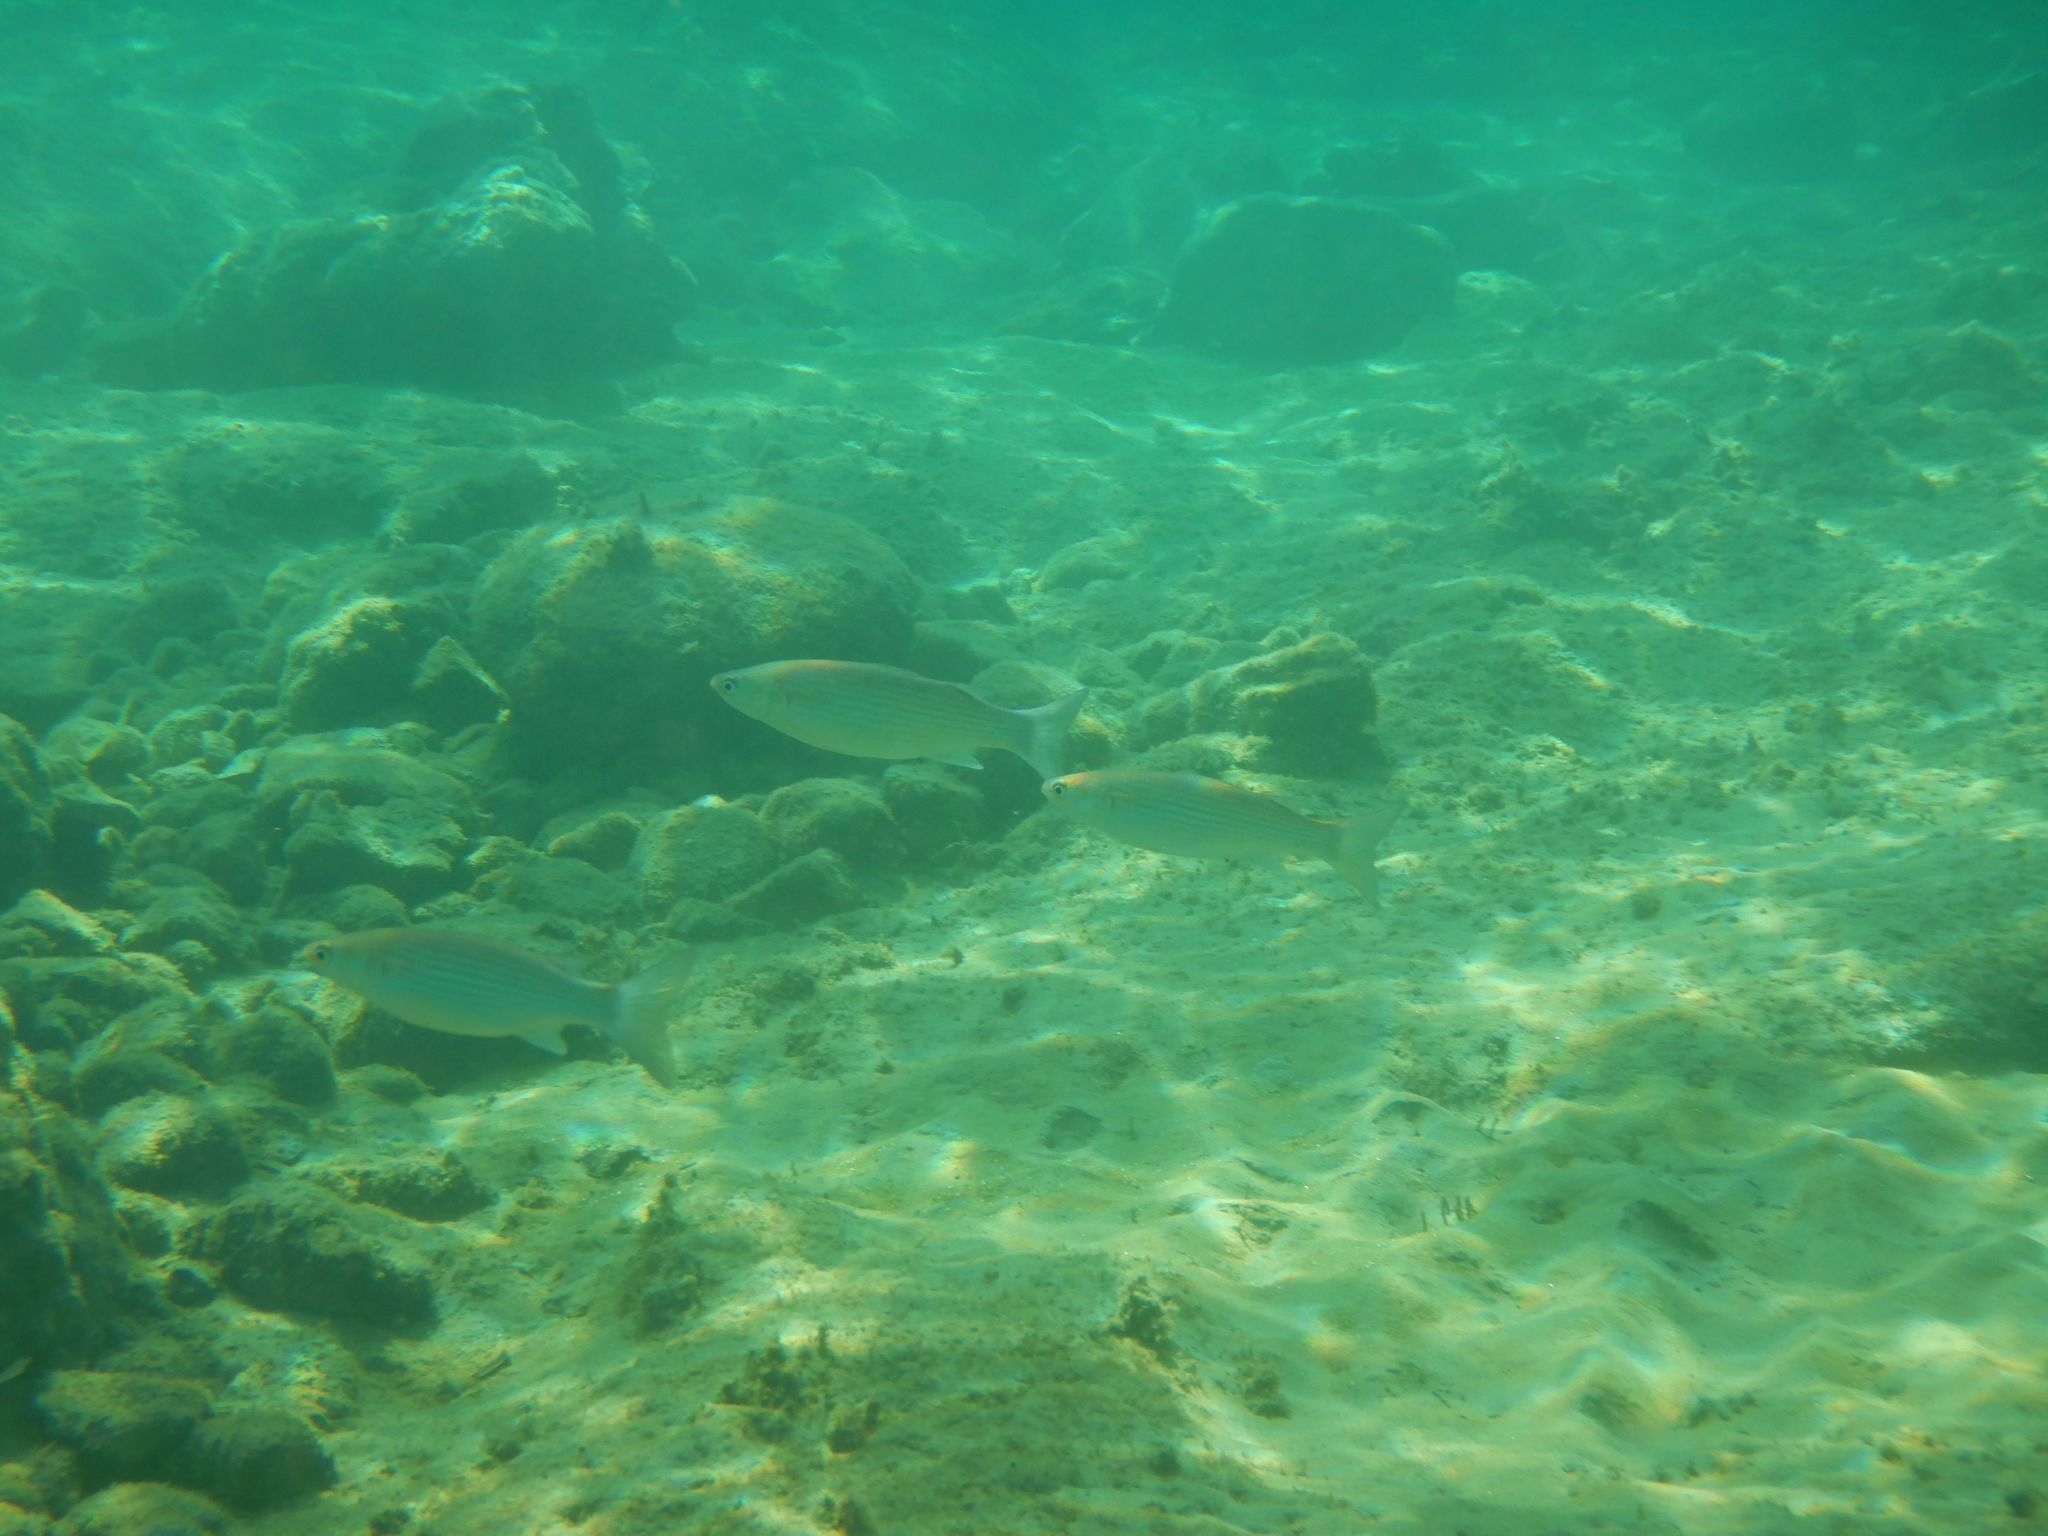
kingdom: Animalia
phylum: Chordata
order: Mugiliformes
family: Mugilidae
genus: Chelon
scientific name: Chelon
